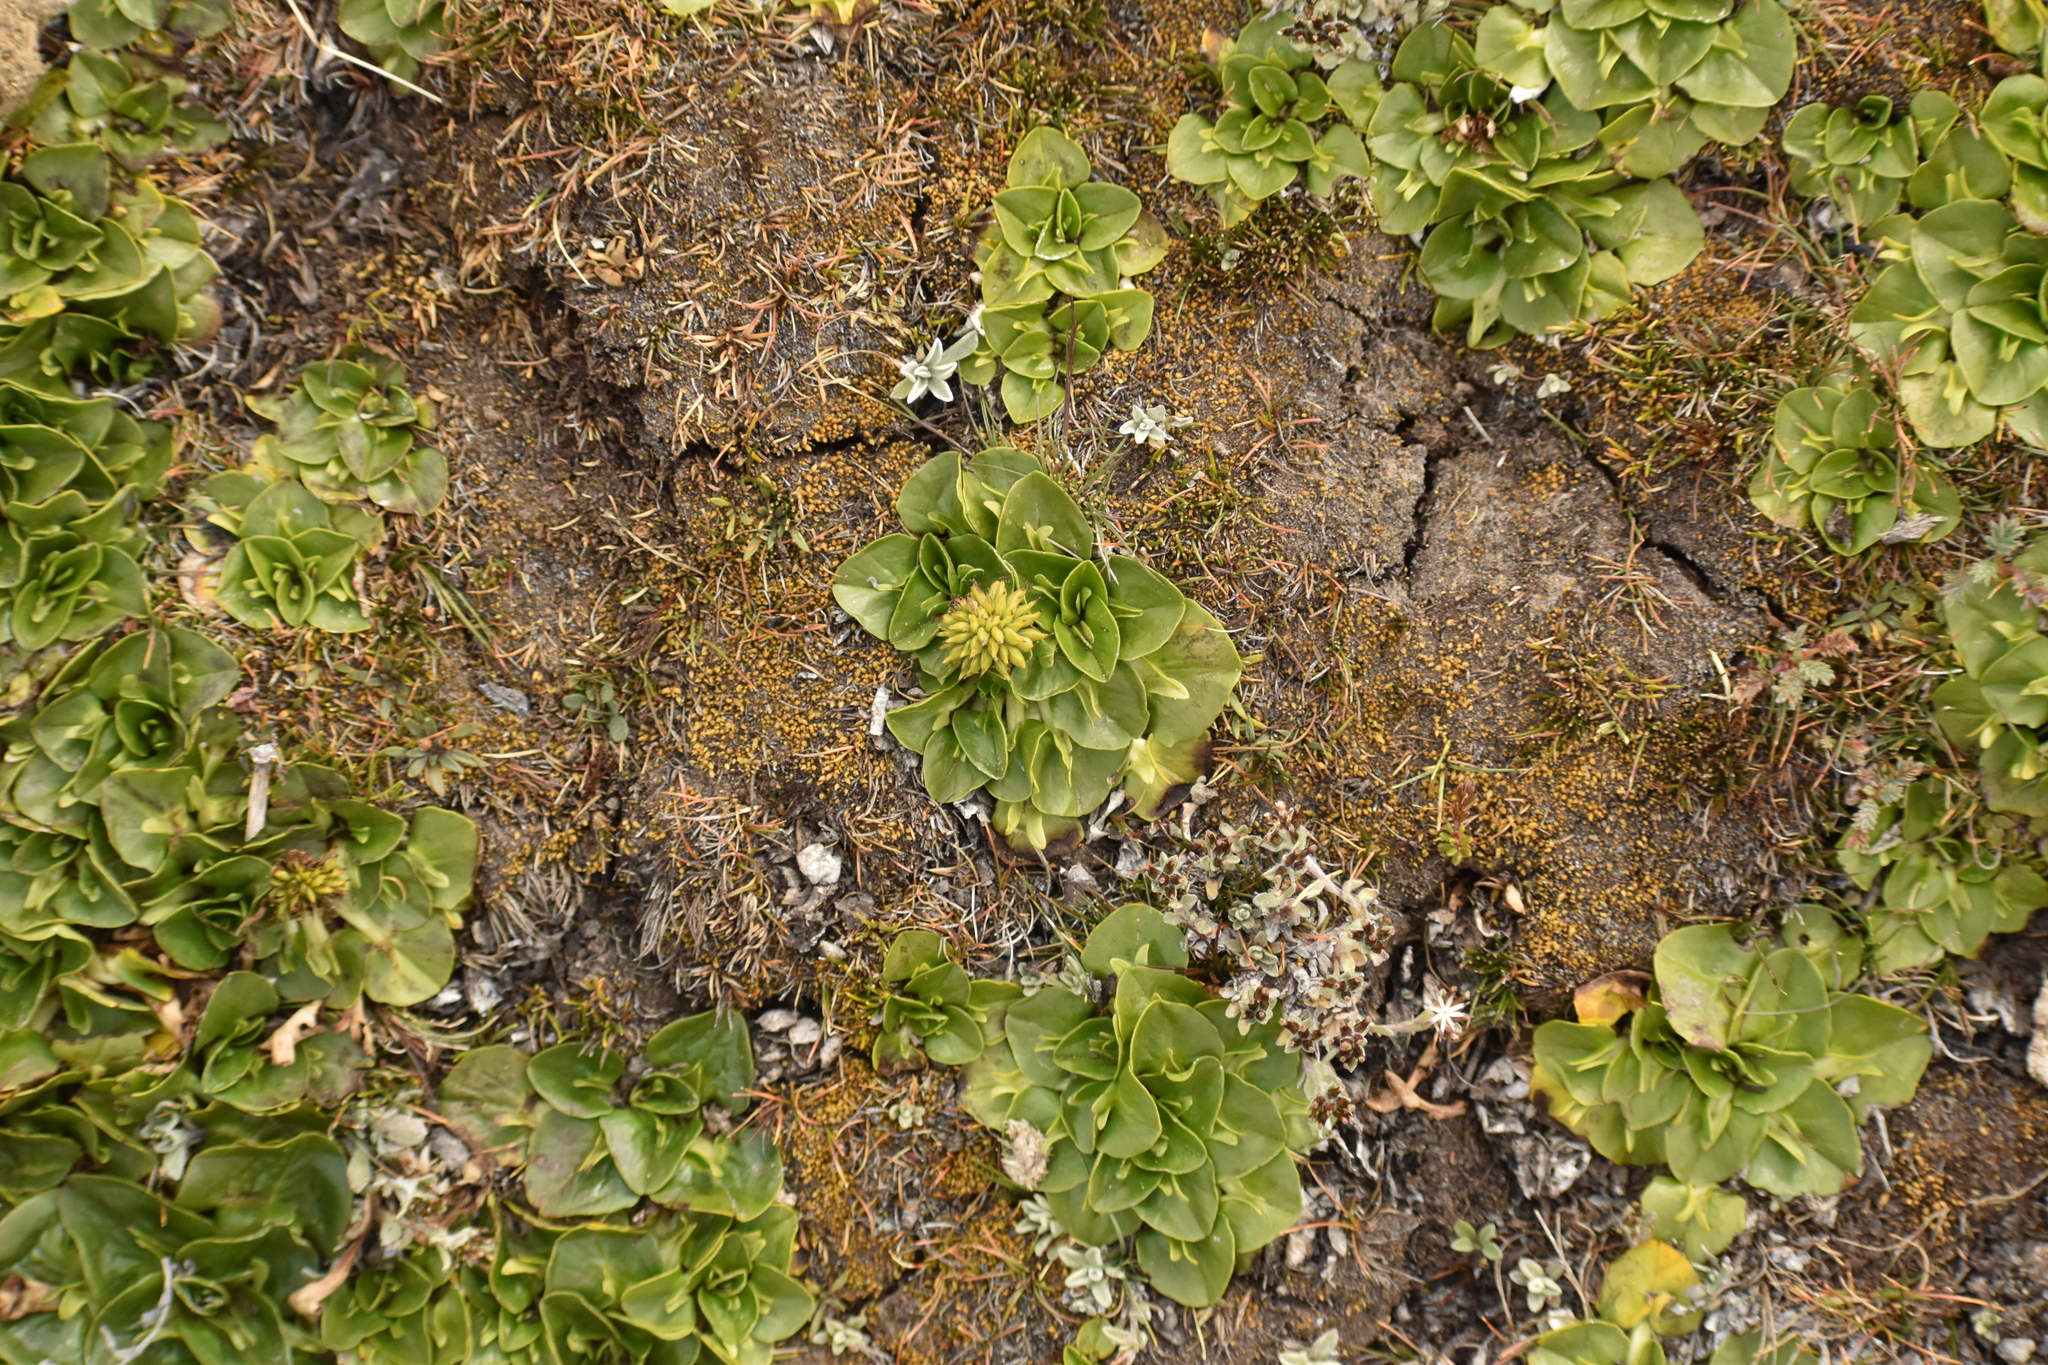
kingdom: Plantae
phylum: Tracheophyta
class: Magnoliopsida
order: Ranunculales
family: Ranunculaceae
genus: Caltha
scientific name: Caltha sagittata
